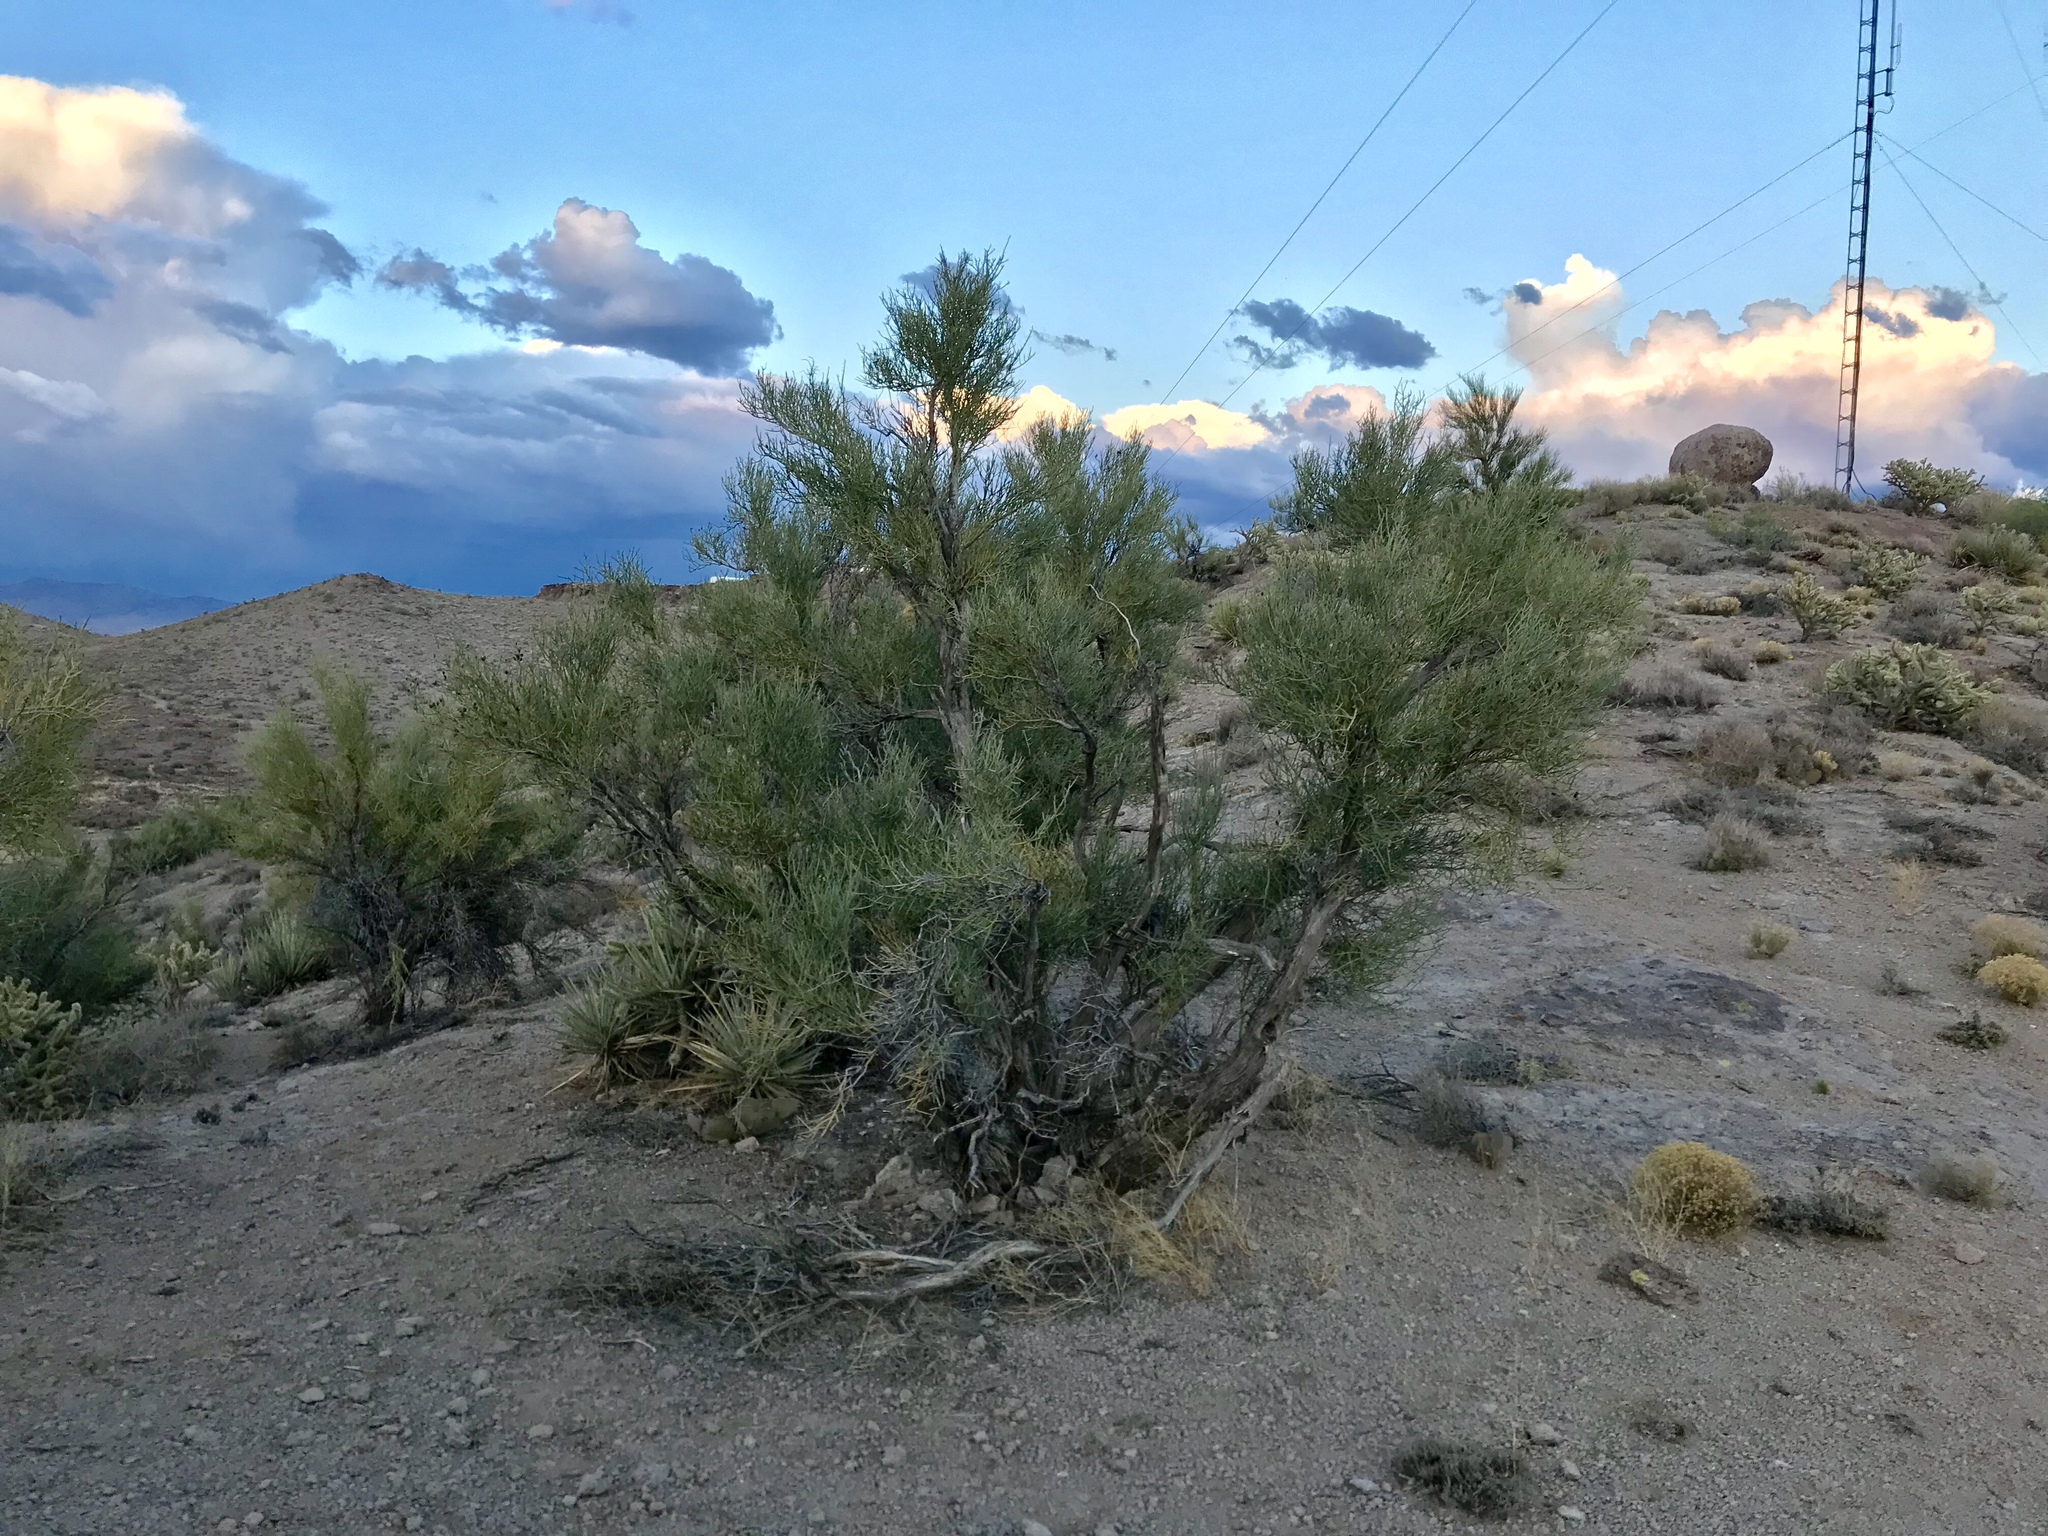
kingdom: Plantae
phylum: Tracheophyta
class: Magnoliopsida
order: Celastrales
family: Celastraceae
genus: Canotia
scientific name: Canotia holacantha
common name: Crucifixion thorns
